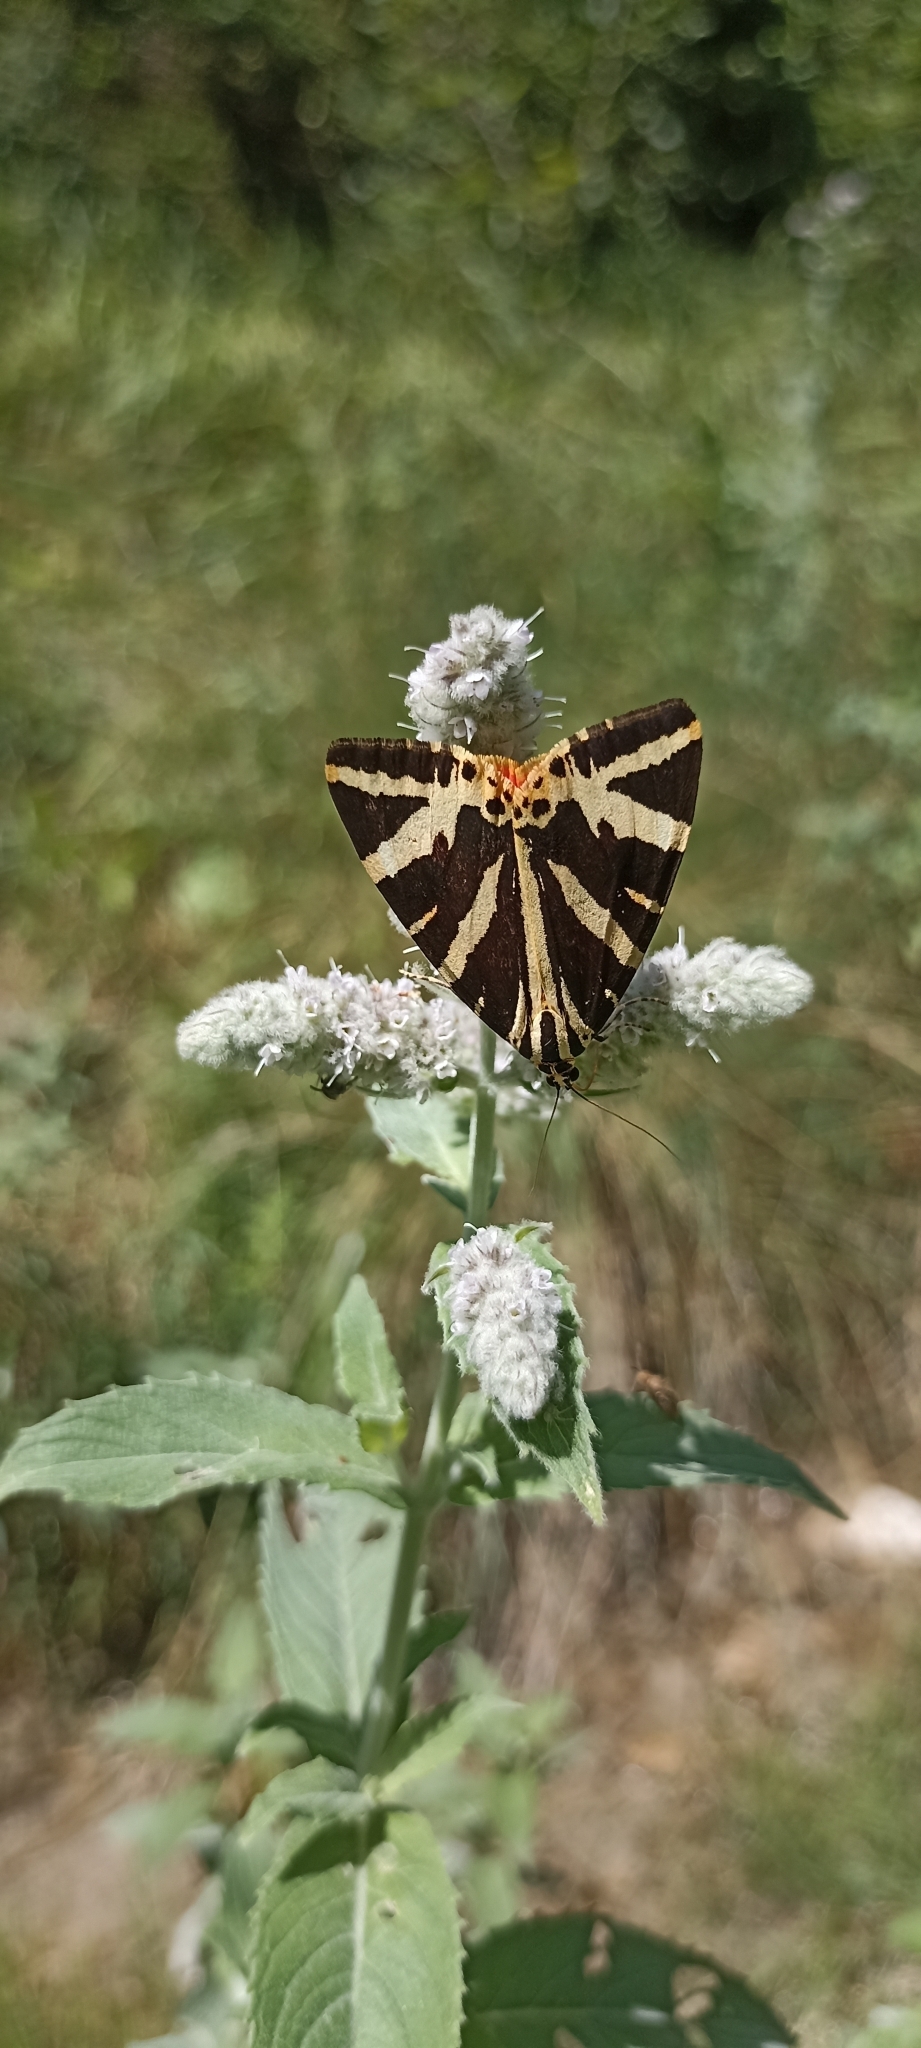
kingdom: Animalia
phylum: Arthropoda
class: Insecta
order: Lepidoptera
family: Erebidae
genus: Euplagia
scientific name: Euplagia quadripunctaria
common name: Jersey tiger
